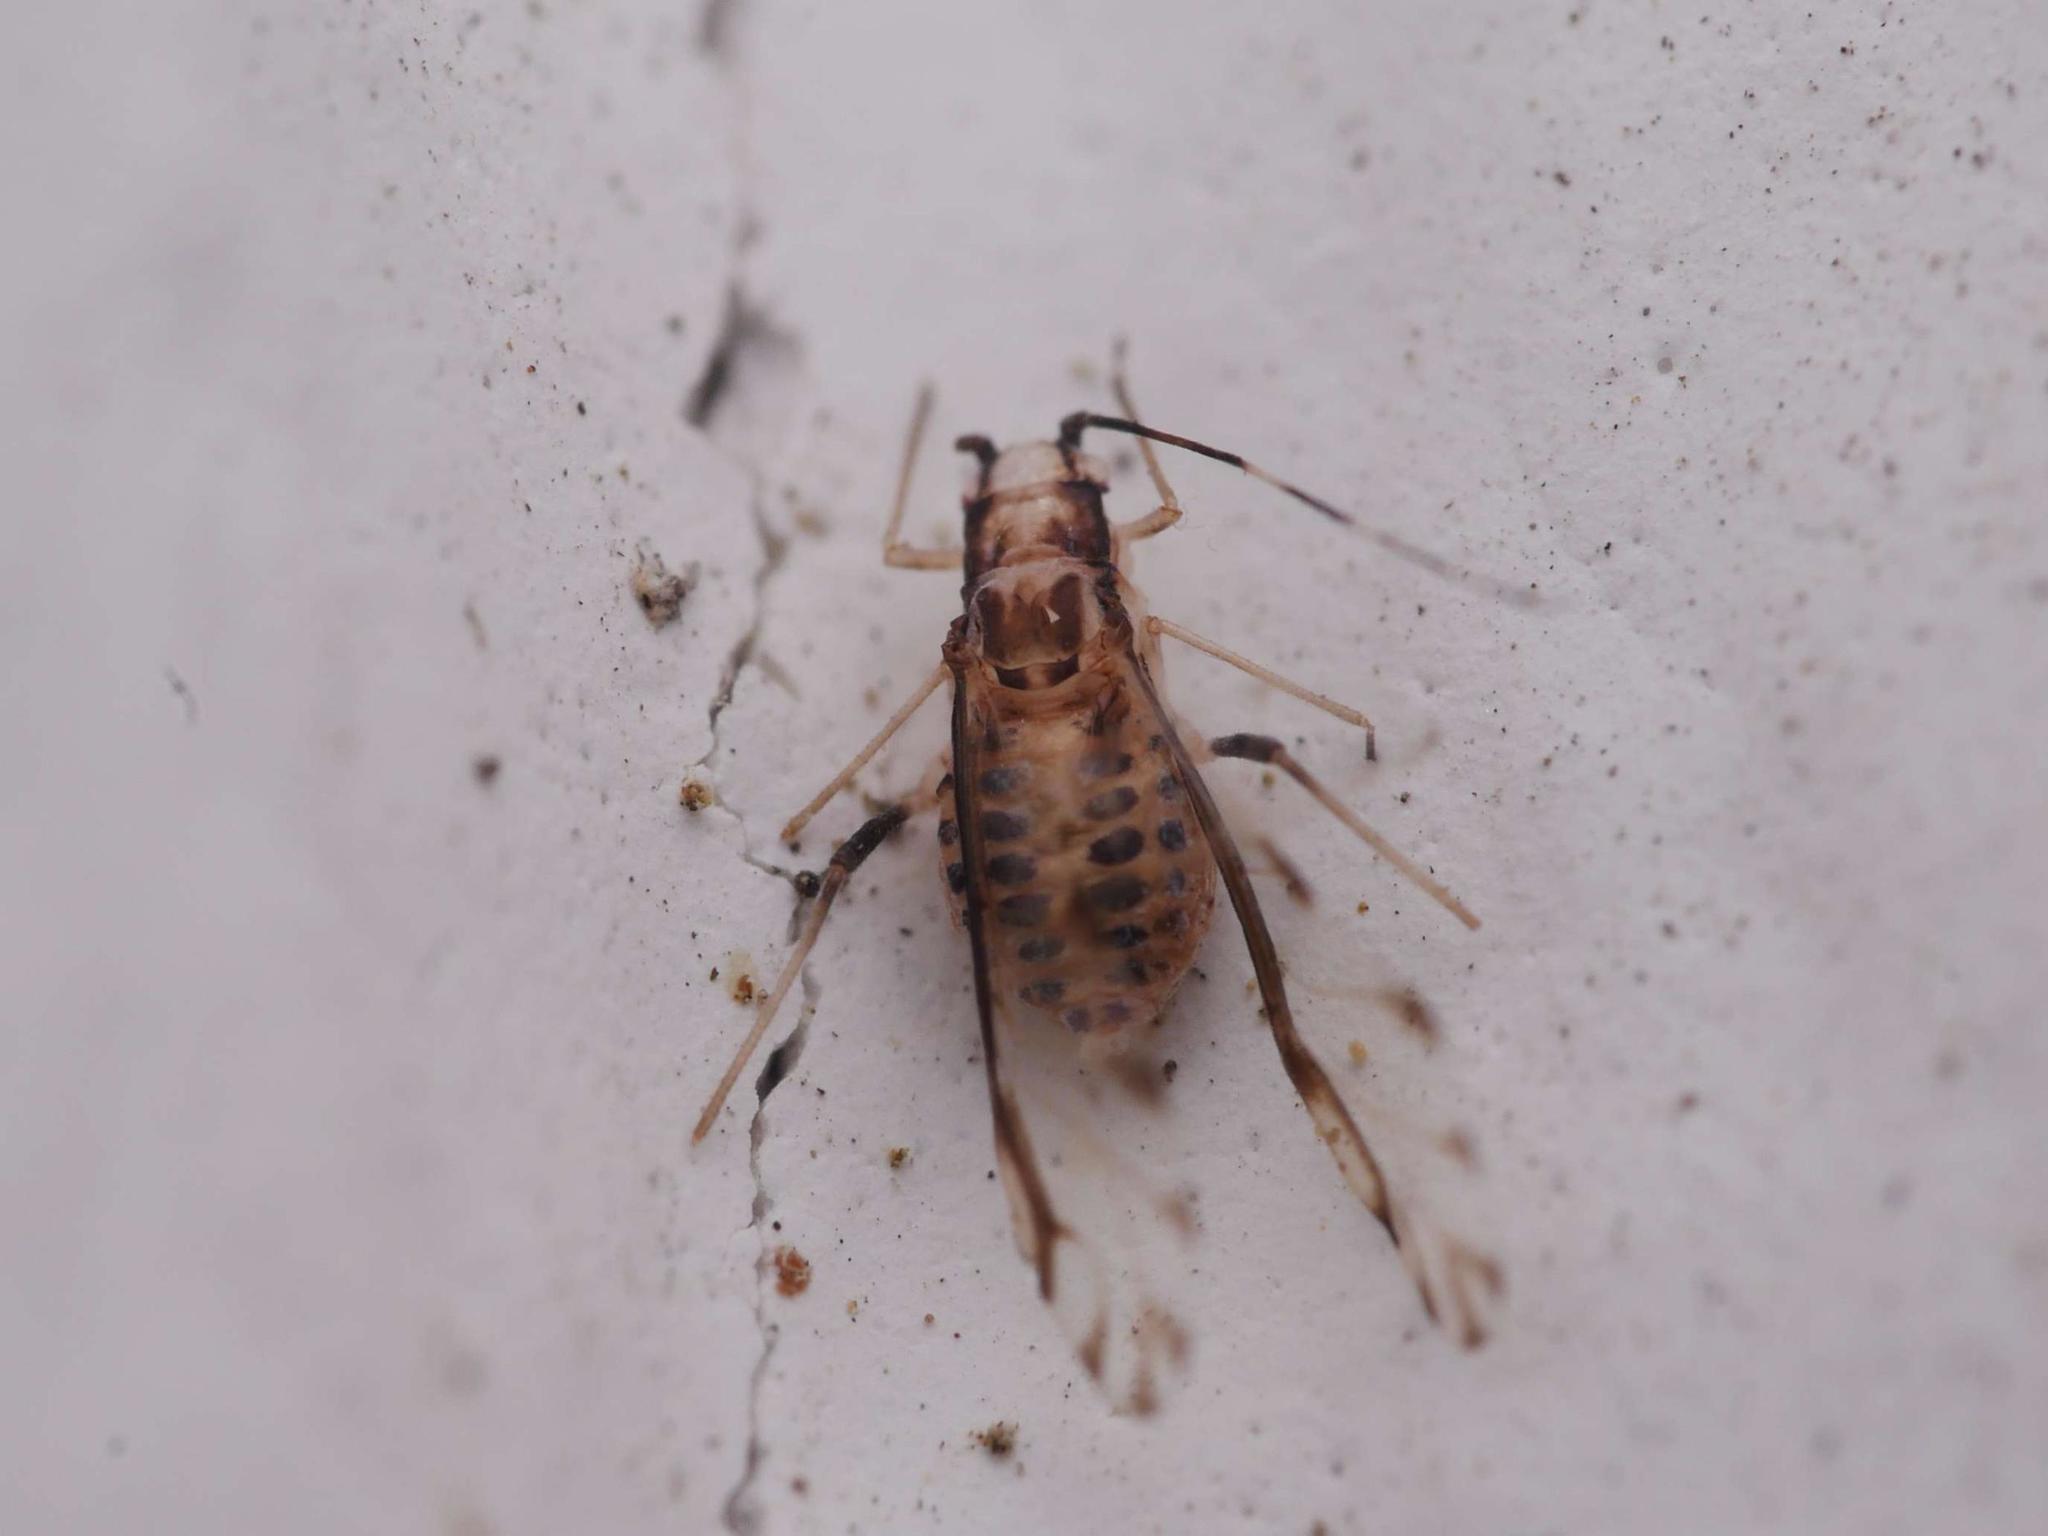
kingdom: Animalia
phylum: Arthropoda
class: Insecta
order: Hemiptera
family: Aphididae
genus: Eucallipterus
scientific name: Eucallipterus tiliae
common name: Aphid
